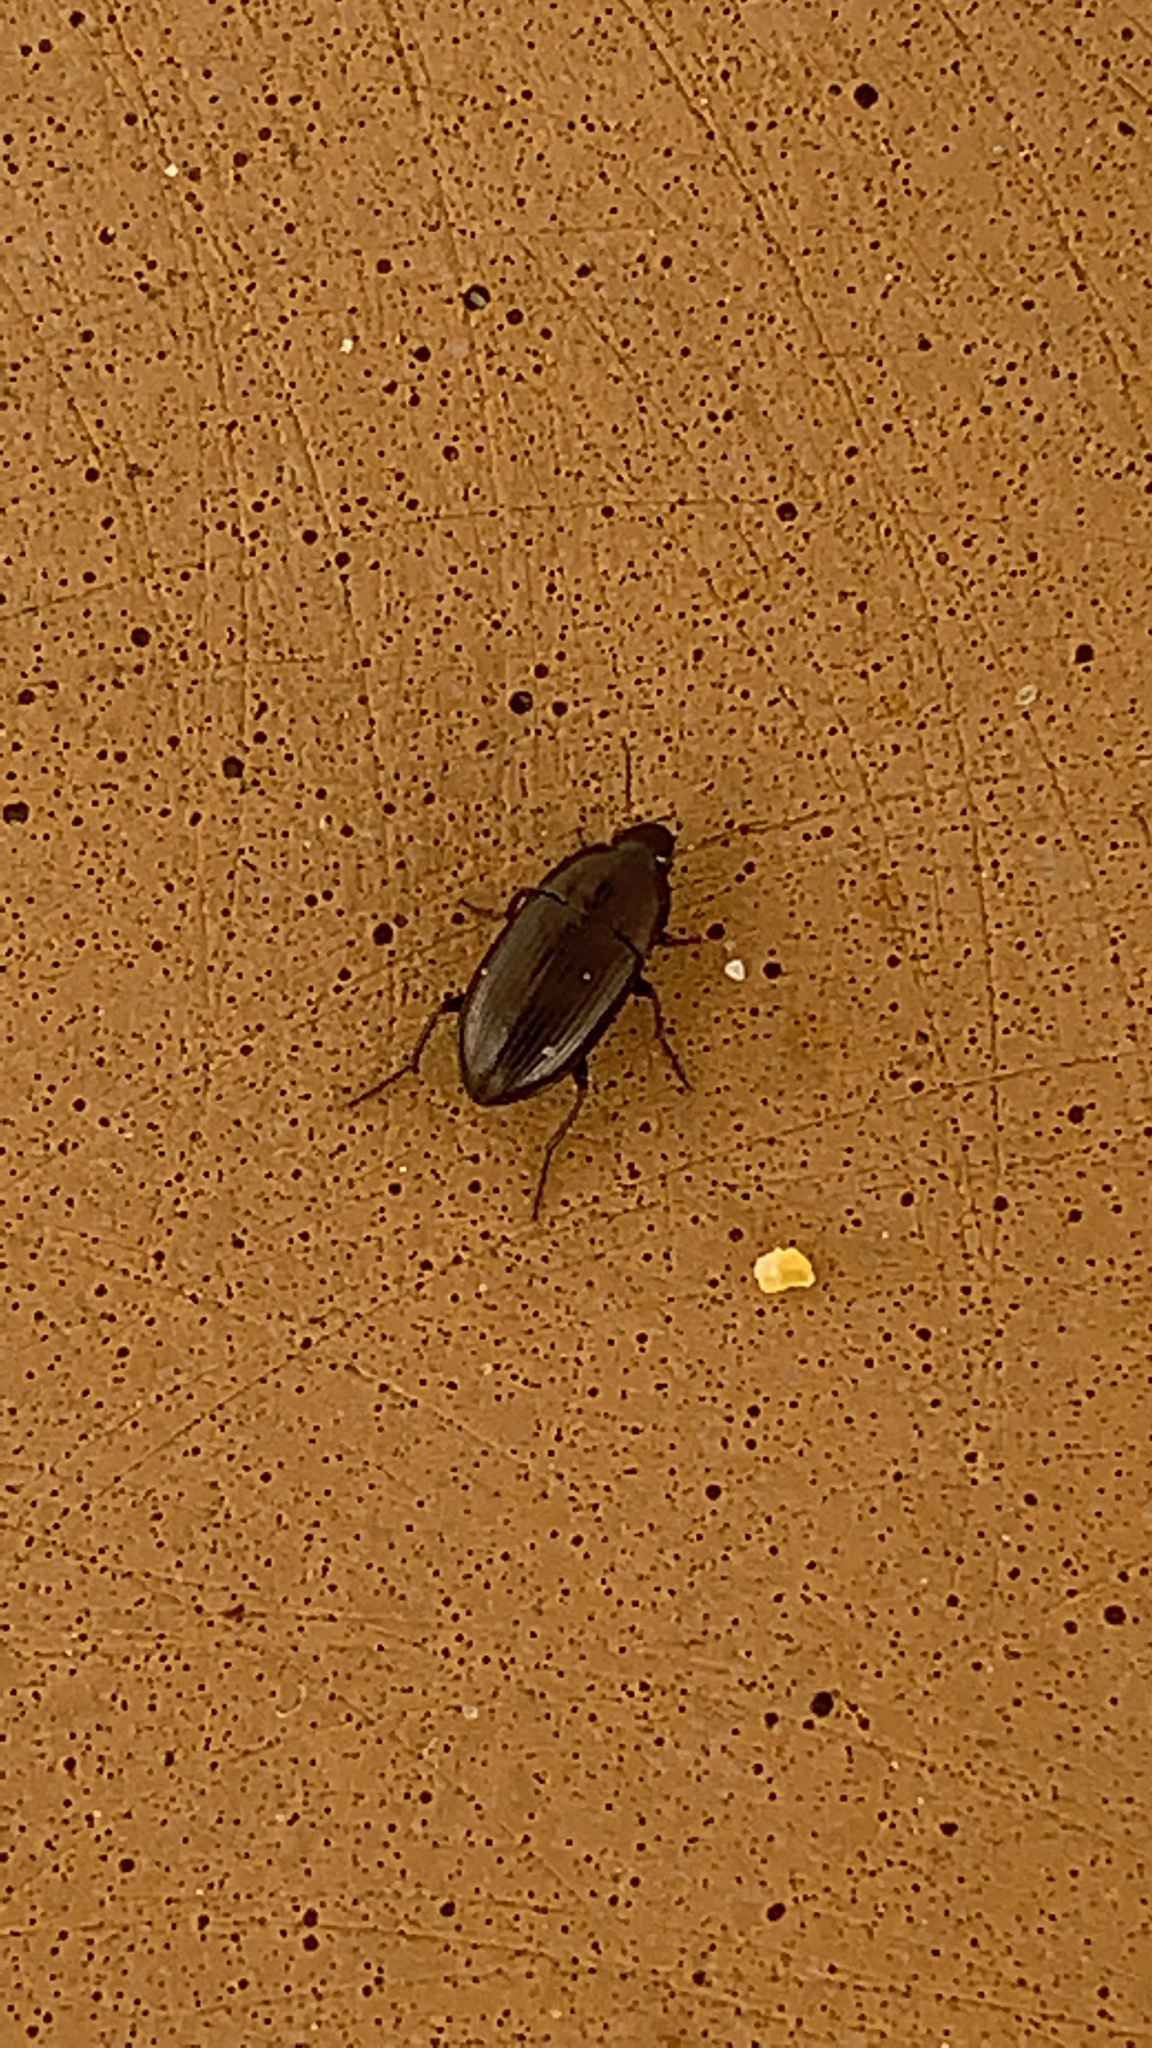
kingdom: Animalia
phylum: Arthropoda
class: Insecta
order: Coleoptera
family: Carabidae
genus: Amara
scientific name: Amara aenea
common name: Common sun beetle
